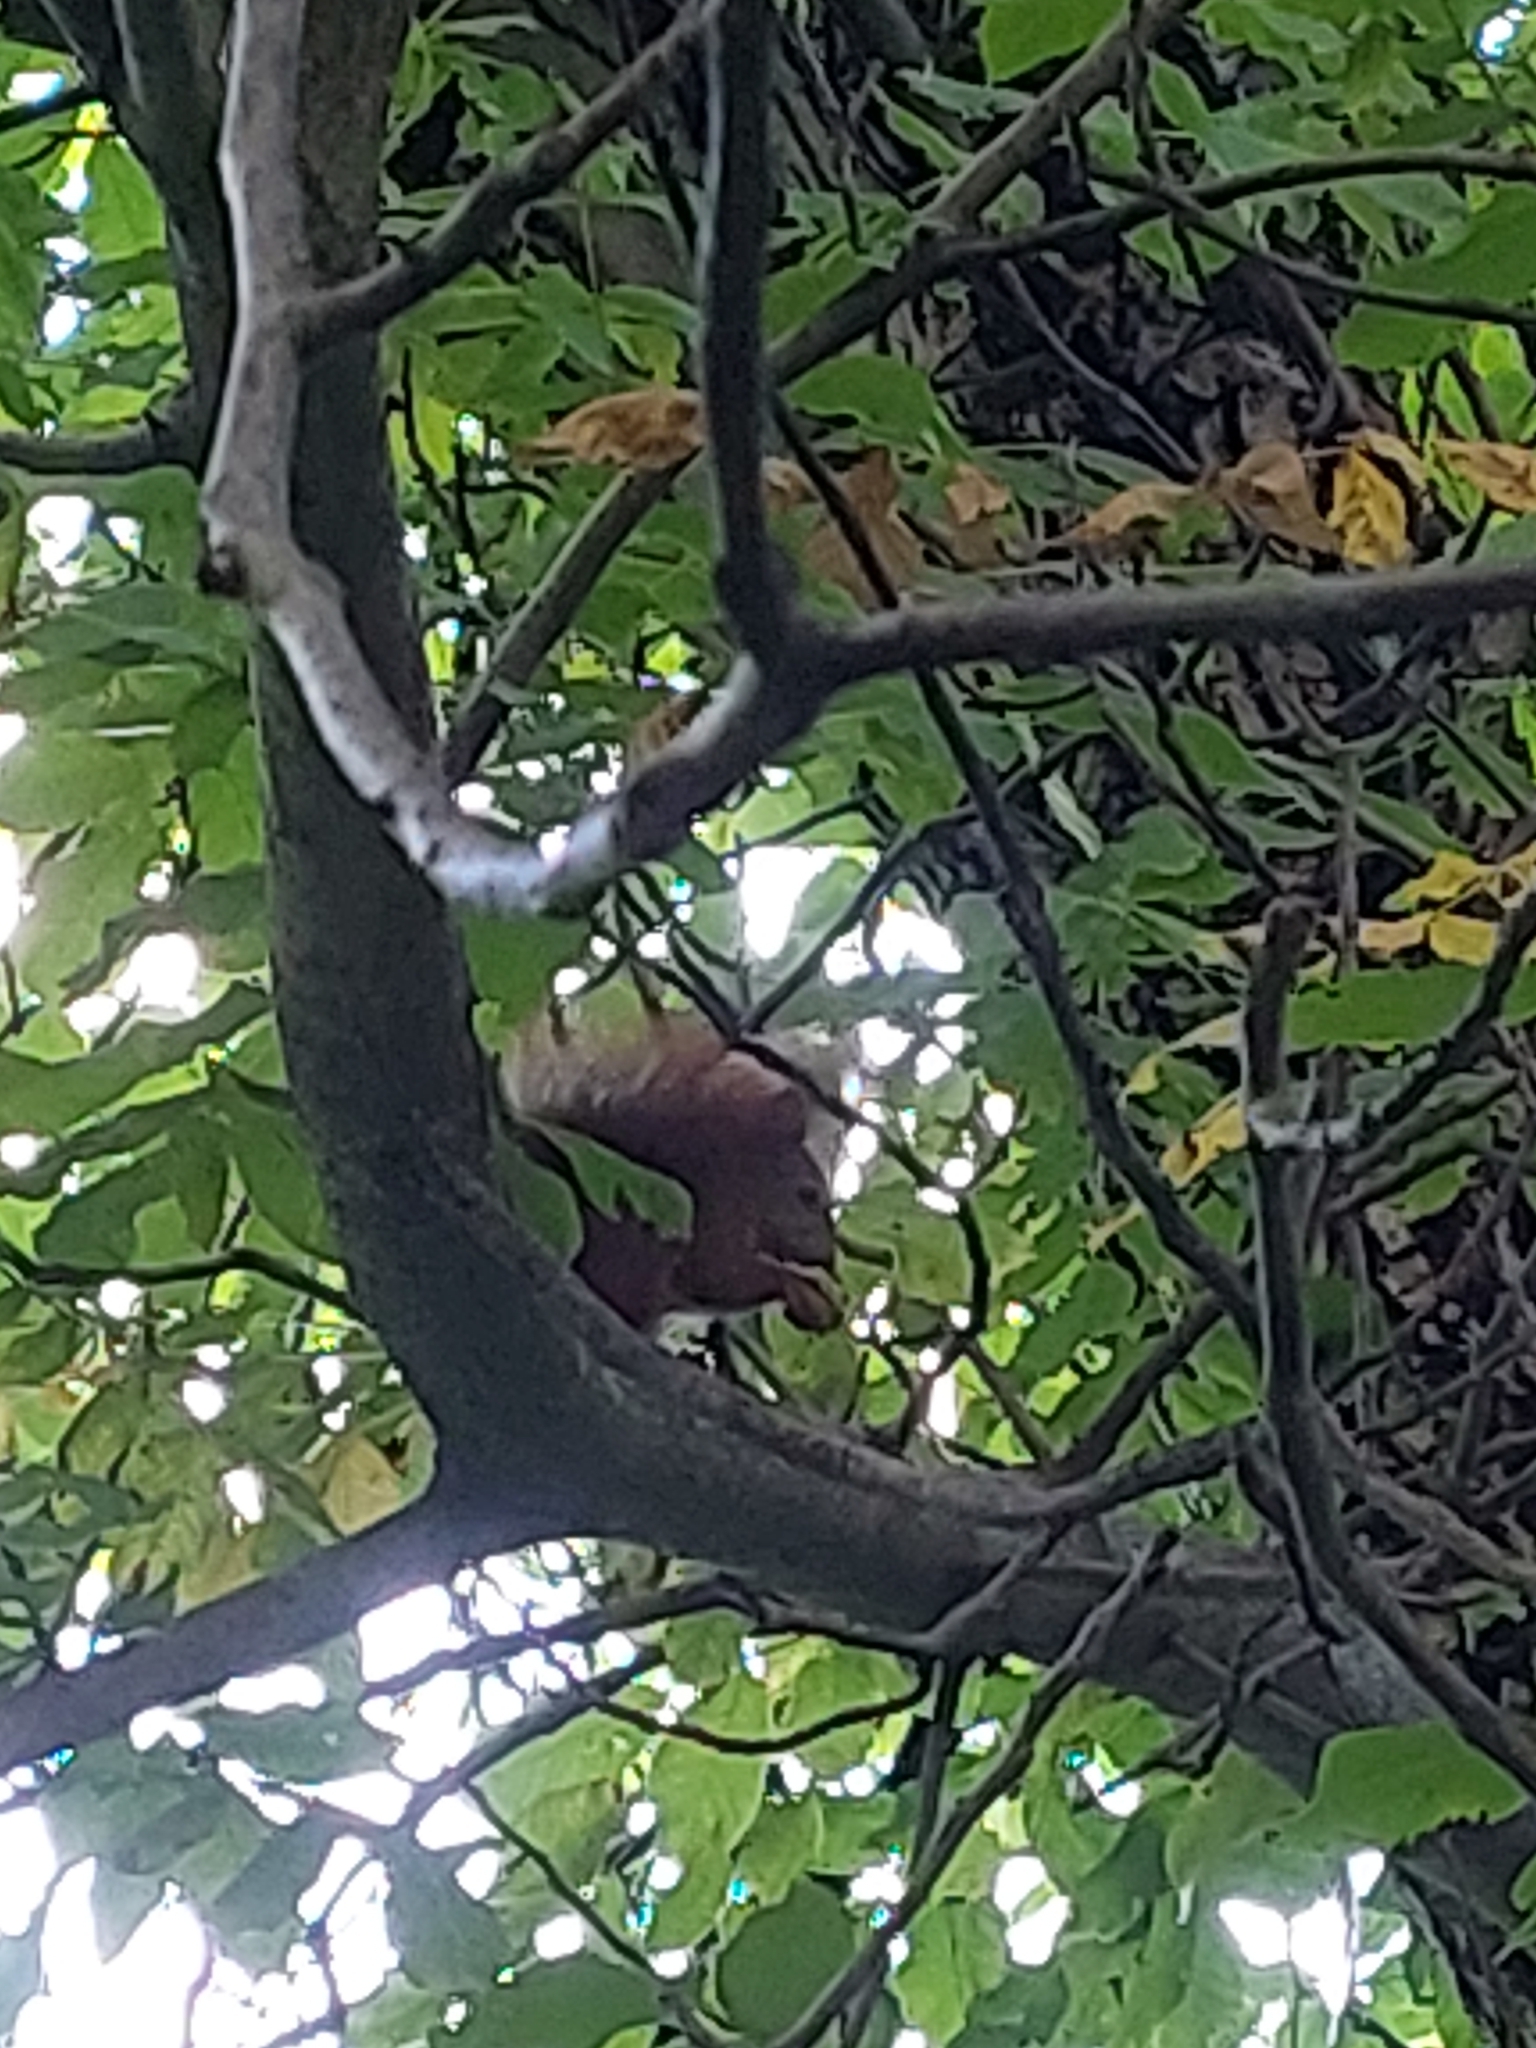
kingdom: Animalia
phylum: Chordata
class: Mammalia
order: Rodentia
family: Sciuridae
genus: Sciurus
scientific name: Sciurus vulgaris
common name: Eurasian red squirrel
